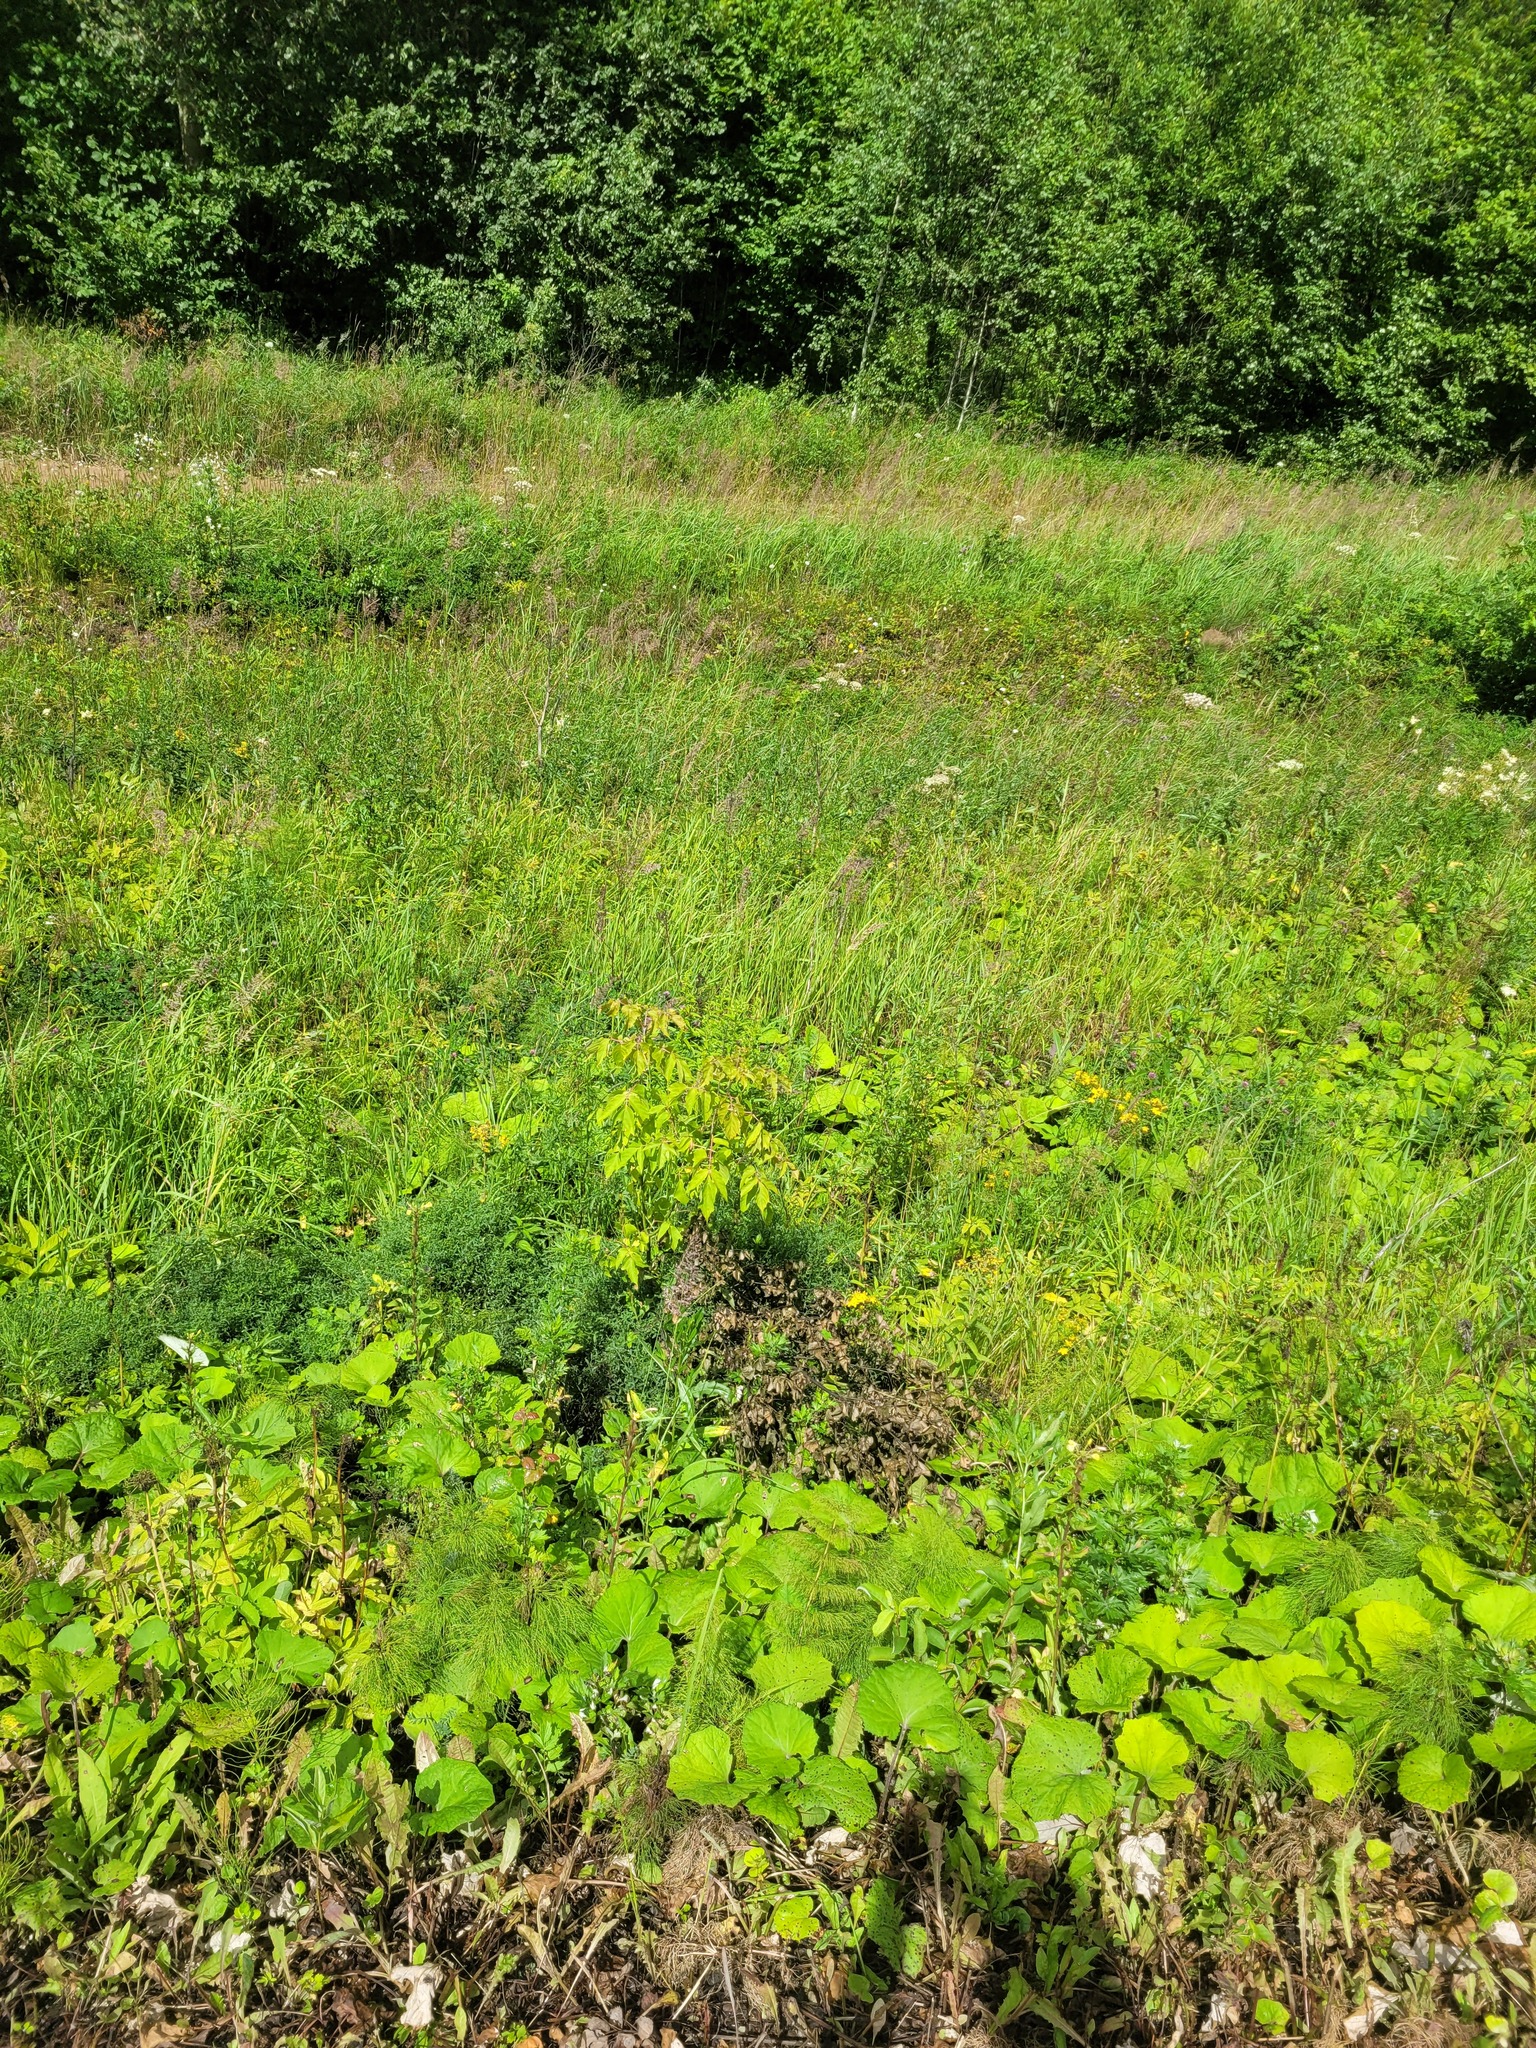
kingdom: Plantae
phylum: Tracheophyta
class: Magnoliopsida
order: Sapindales
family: Sapindaceae
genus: Acer
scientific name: Acer negundo
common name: Ashleaf maple
